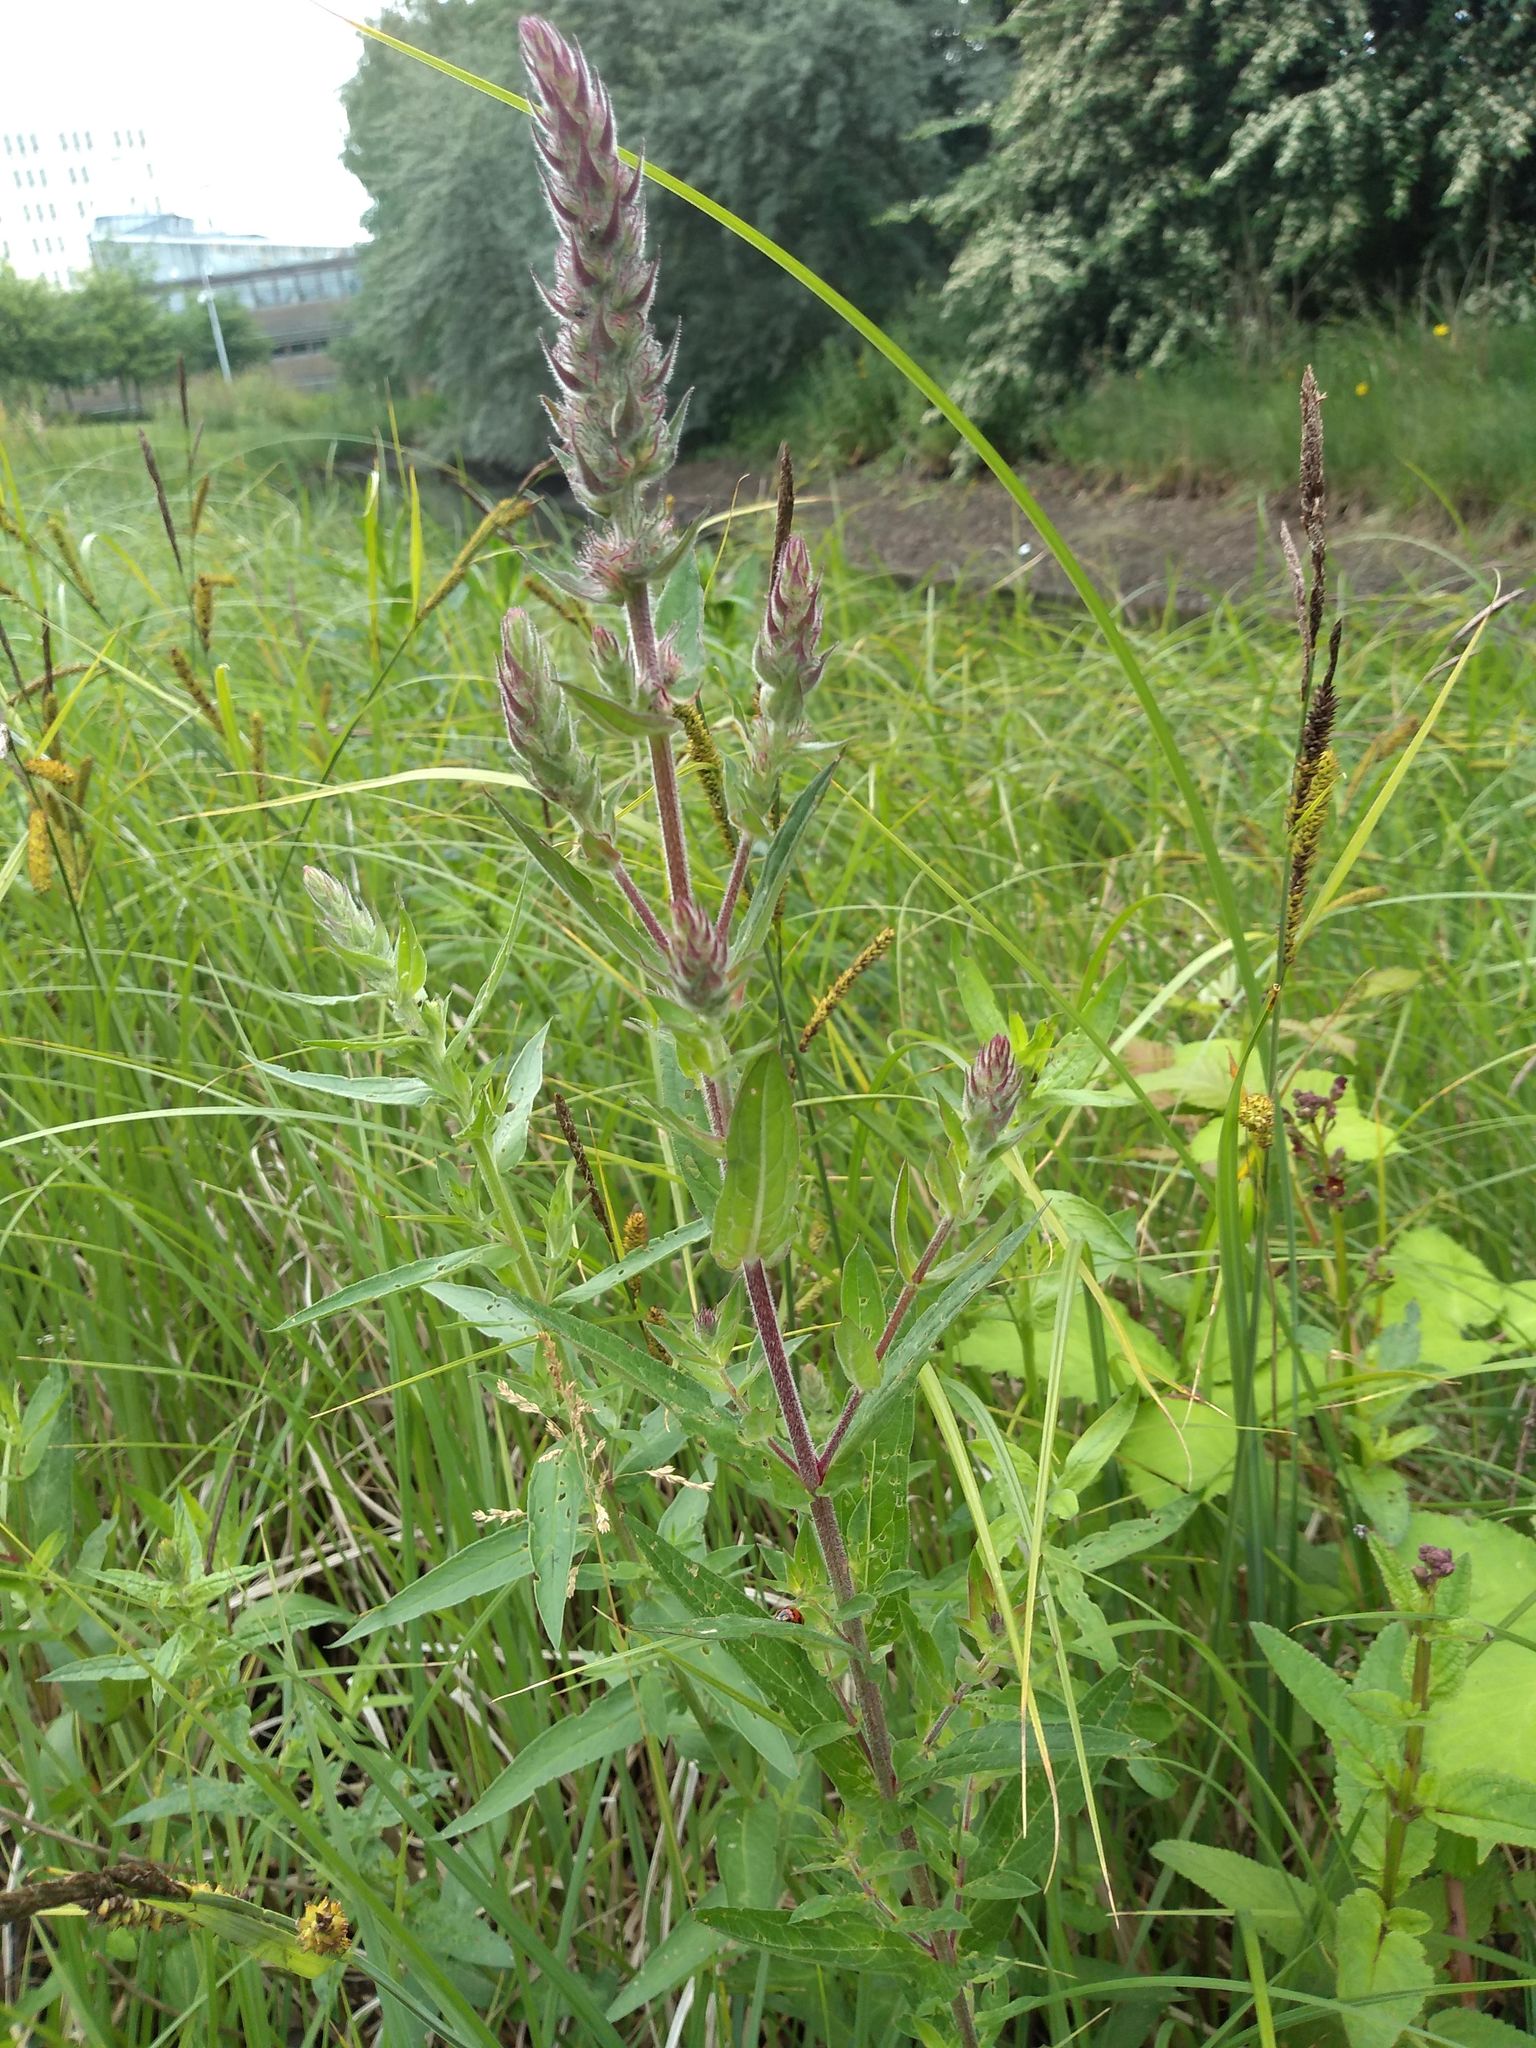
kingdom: Plantae
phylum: Tracheophyta
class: Magnoliopsida
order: Myrtales
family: Lythraceae
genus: Lythrum
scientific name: Lythrum salicaria
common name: Purple loosestrife
